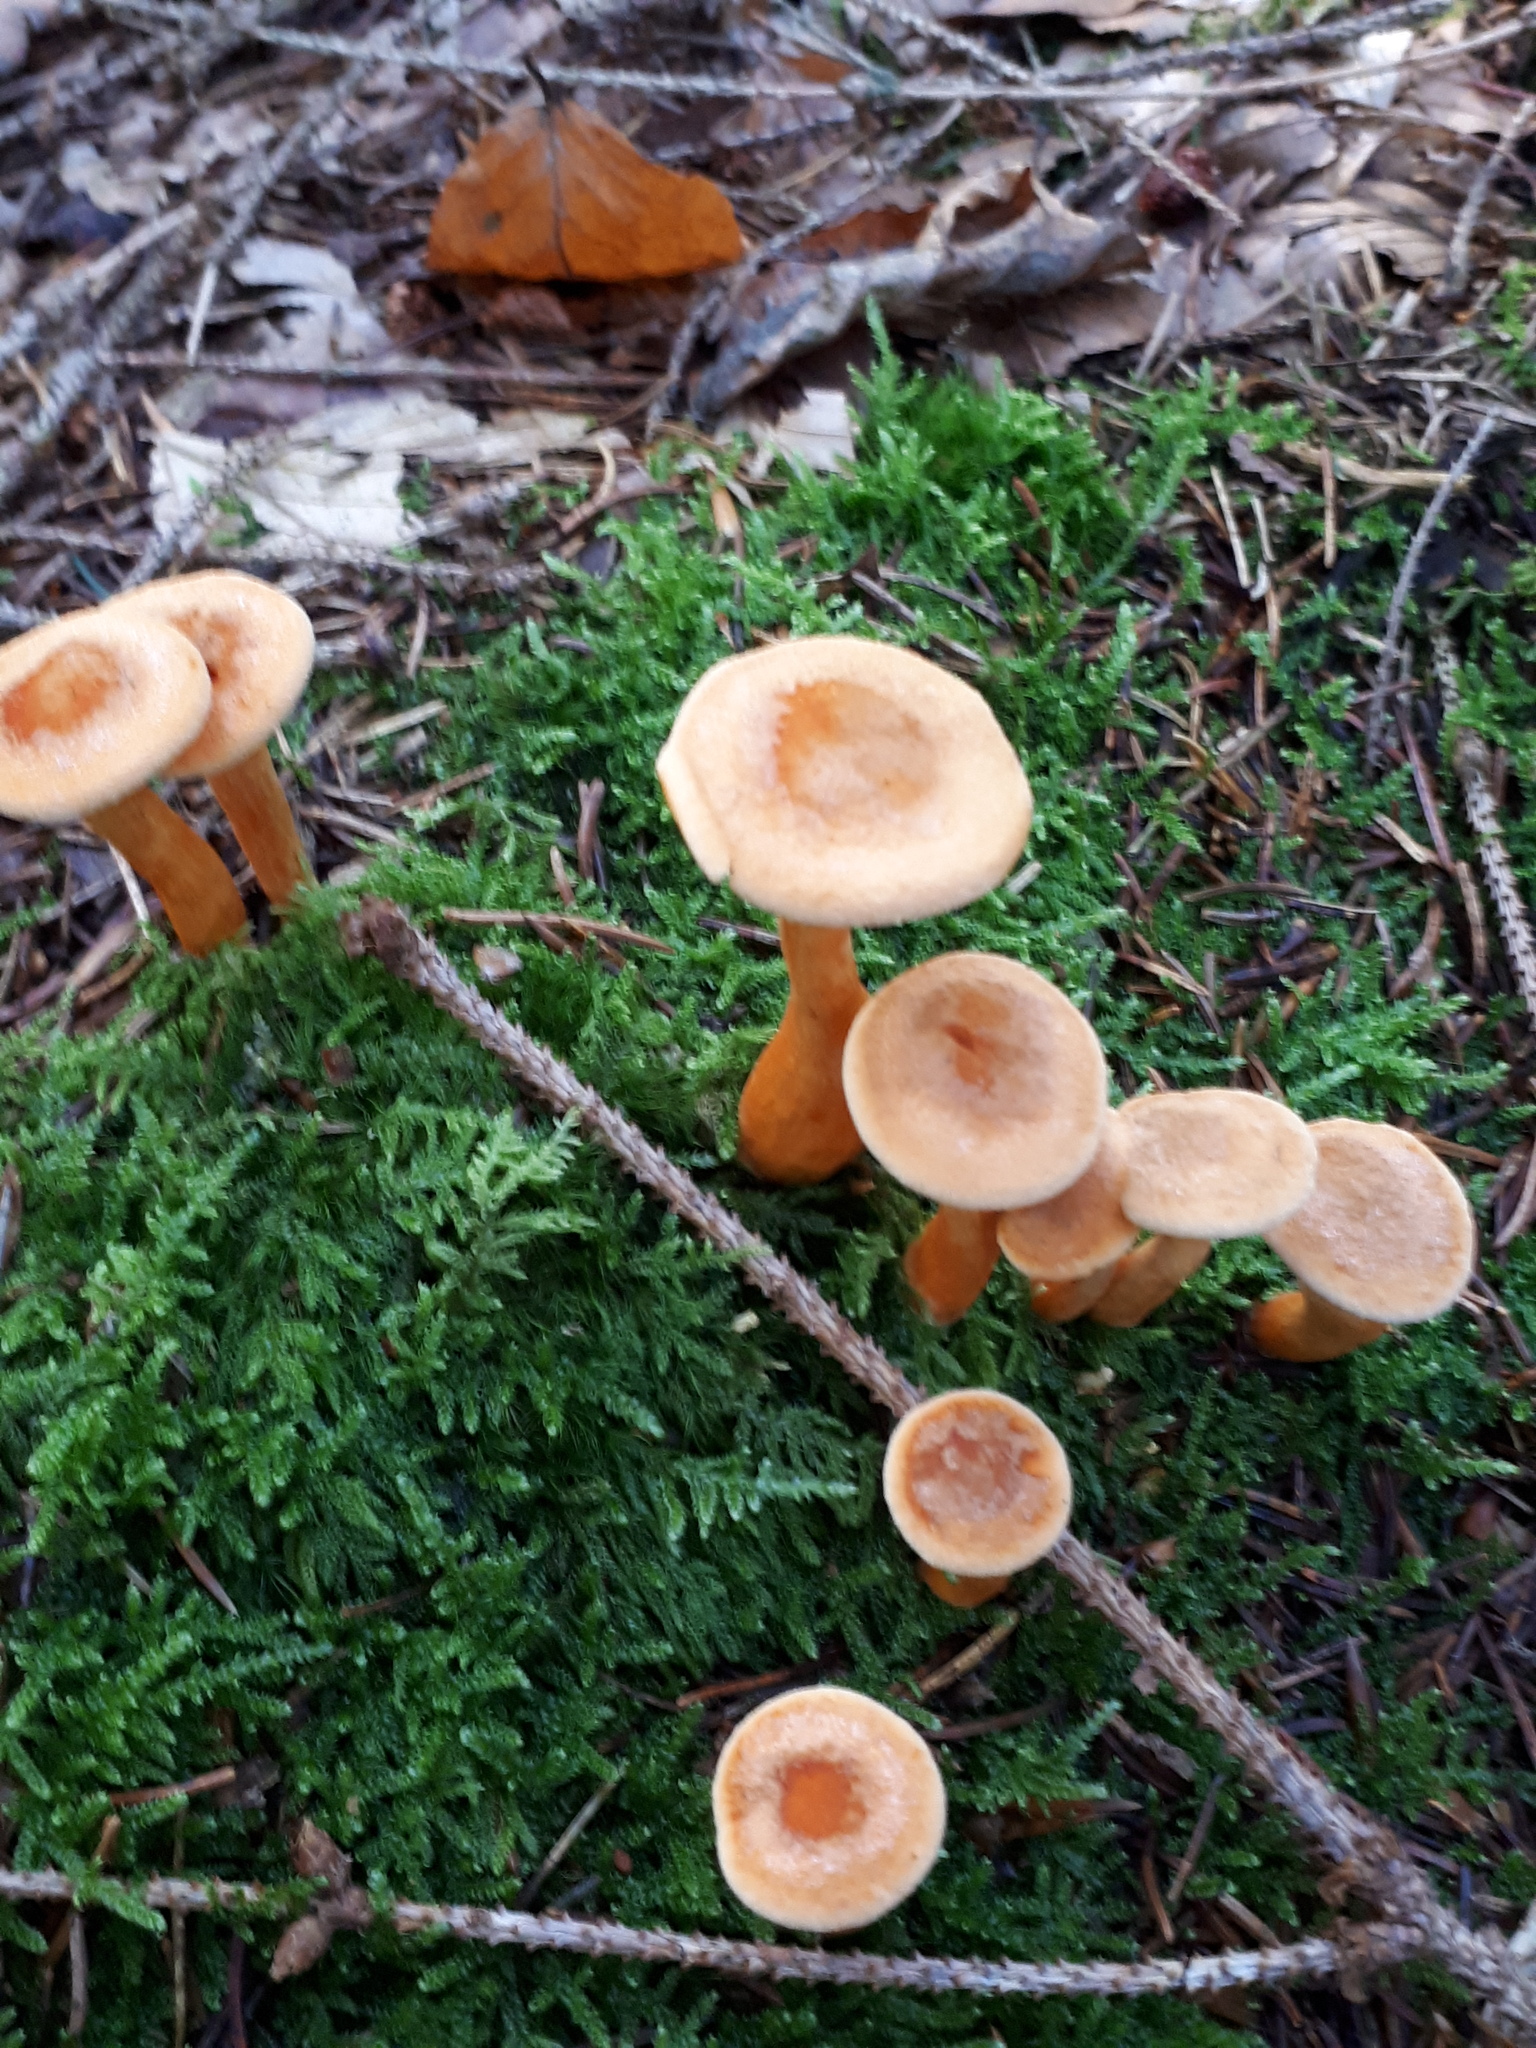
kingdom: Fungi
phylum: Basidiomycota
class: Agaricomycetes
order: Boletales
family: Hygrophoropsidaceae
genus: Hygrophoropsis
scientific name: Hygrophoropsis aurantiaca
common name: False chanterelle
